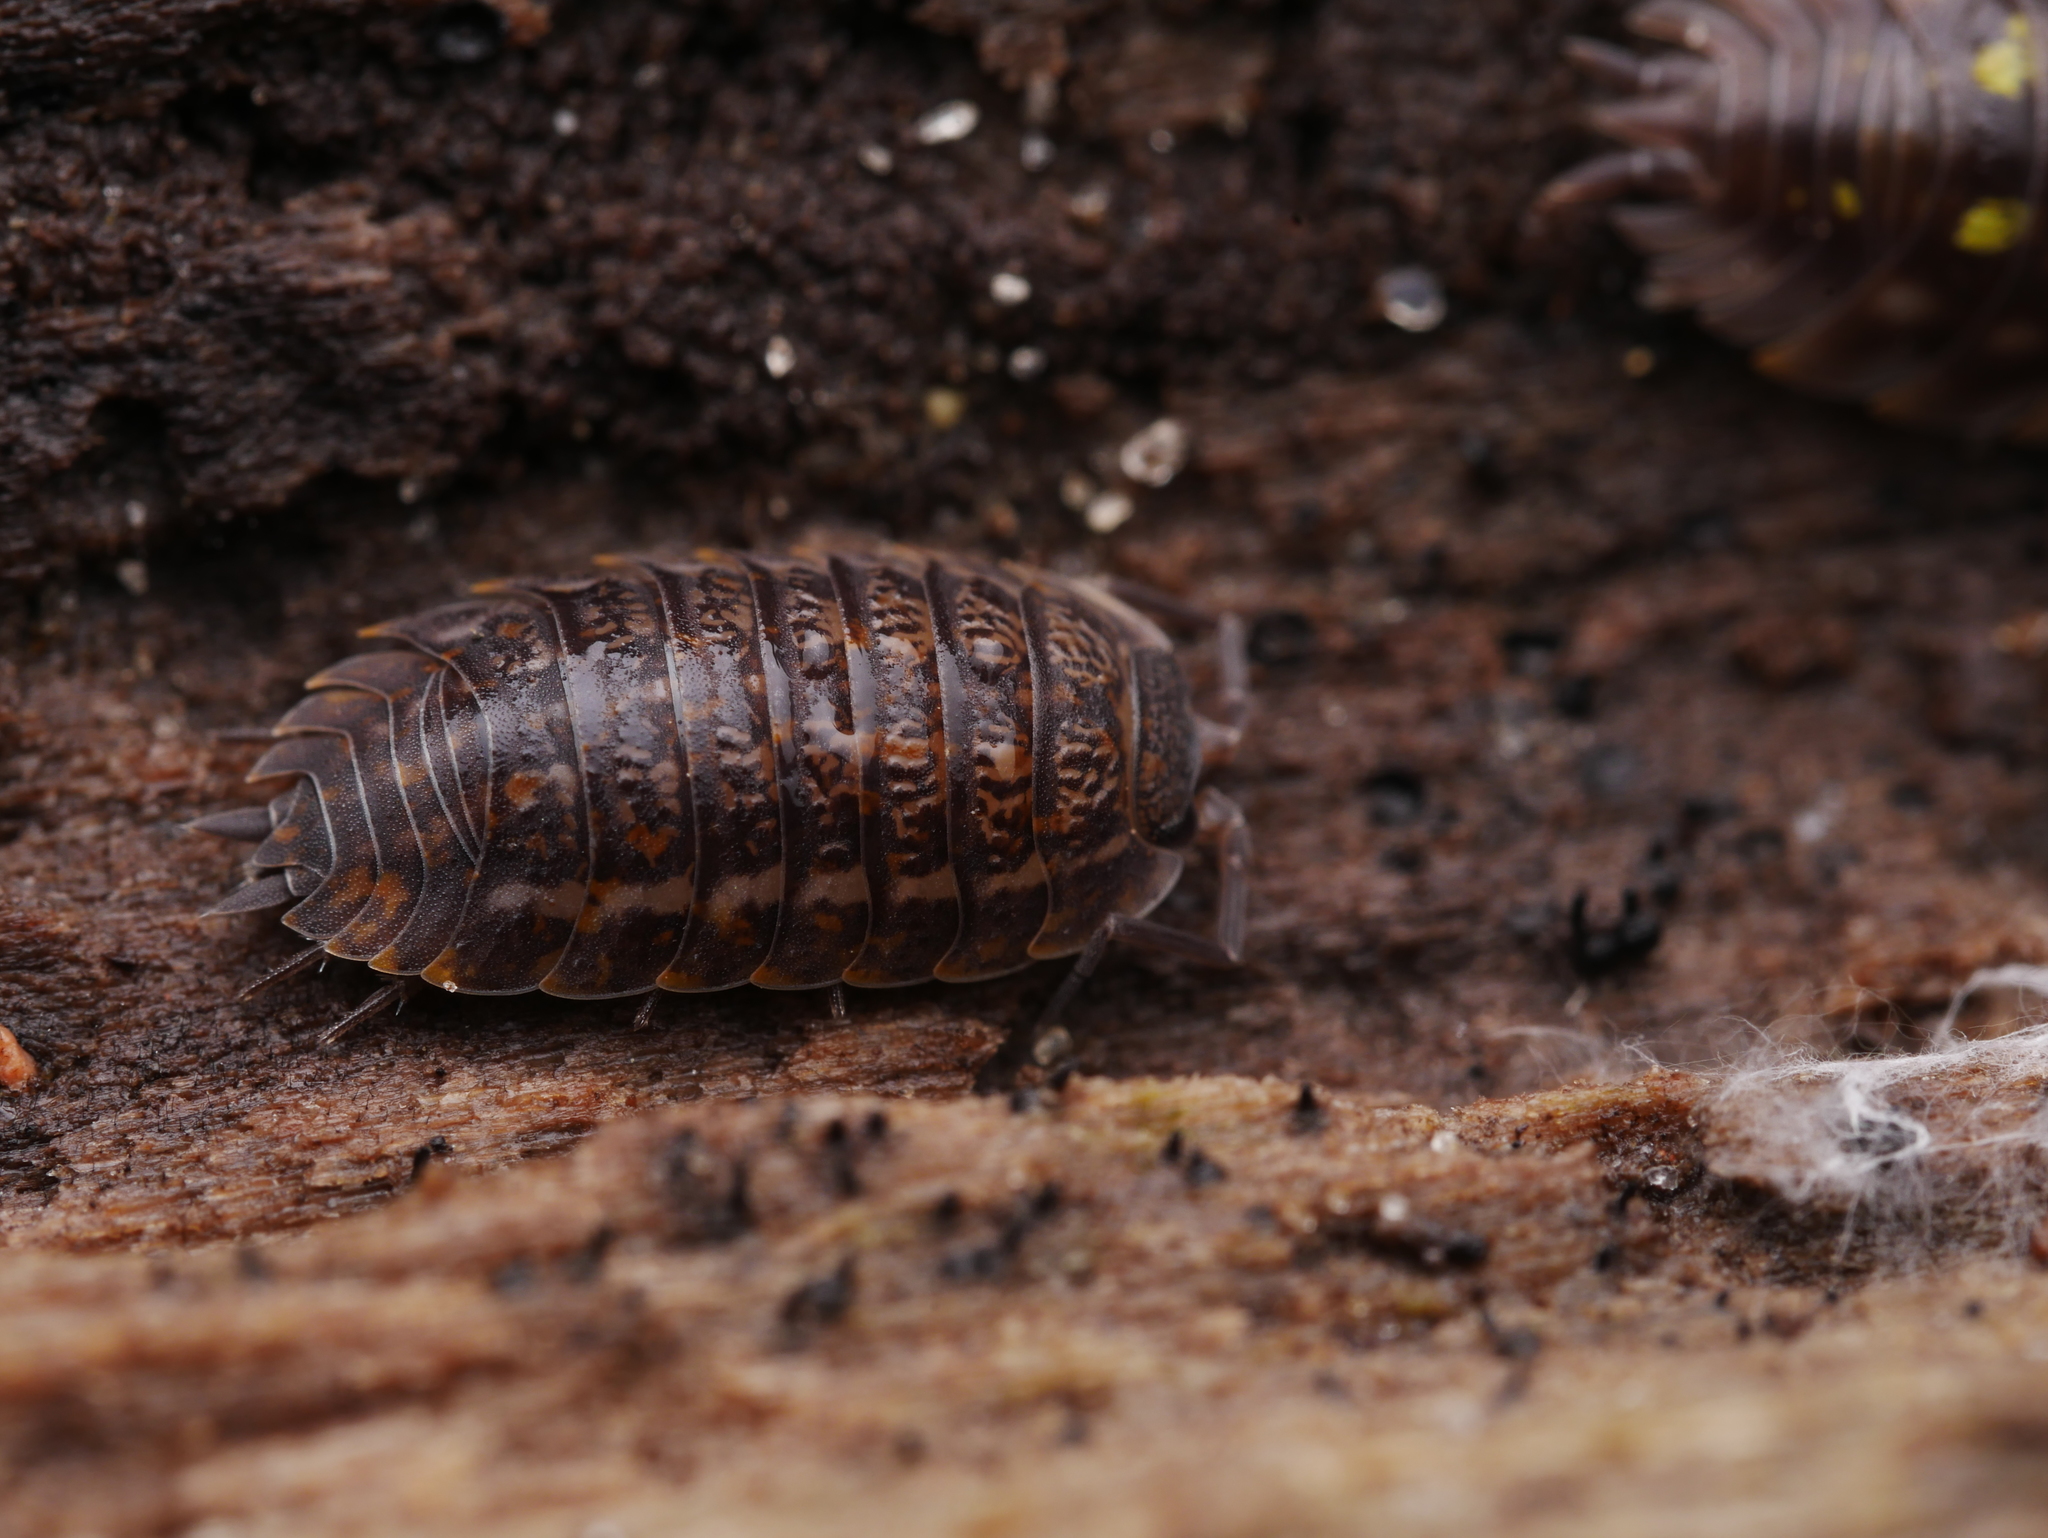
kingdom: Animalia
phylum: Arthropoda
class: Malacostraca
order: Isopoda
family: Trachelipodidae
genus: Trachelipus
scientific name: Trachelipus rathkii
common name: Isopod
